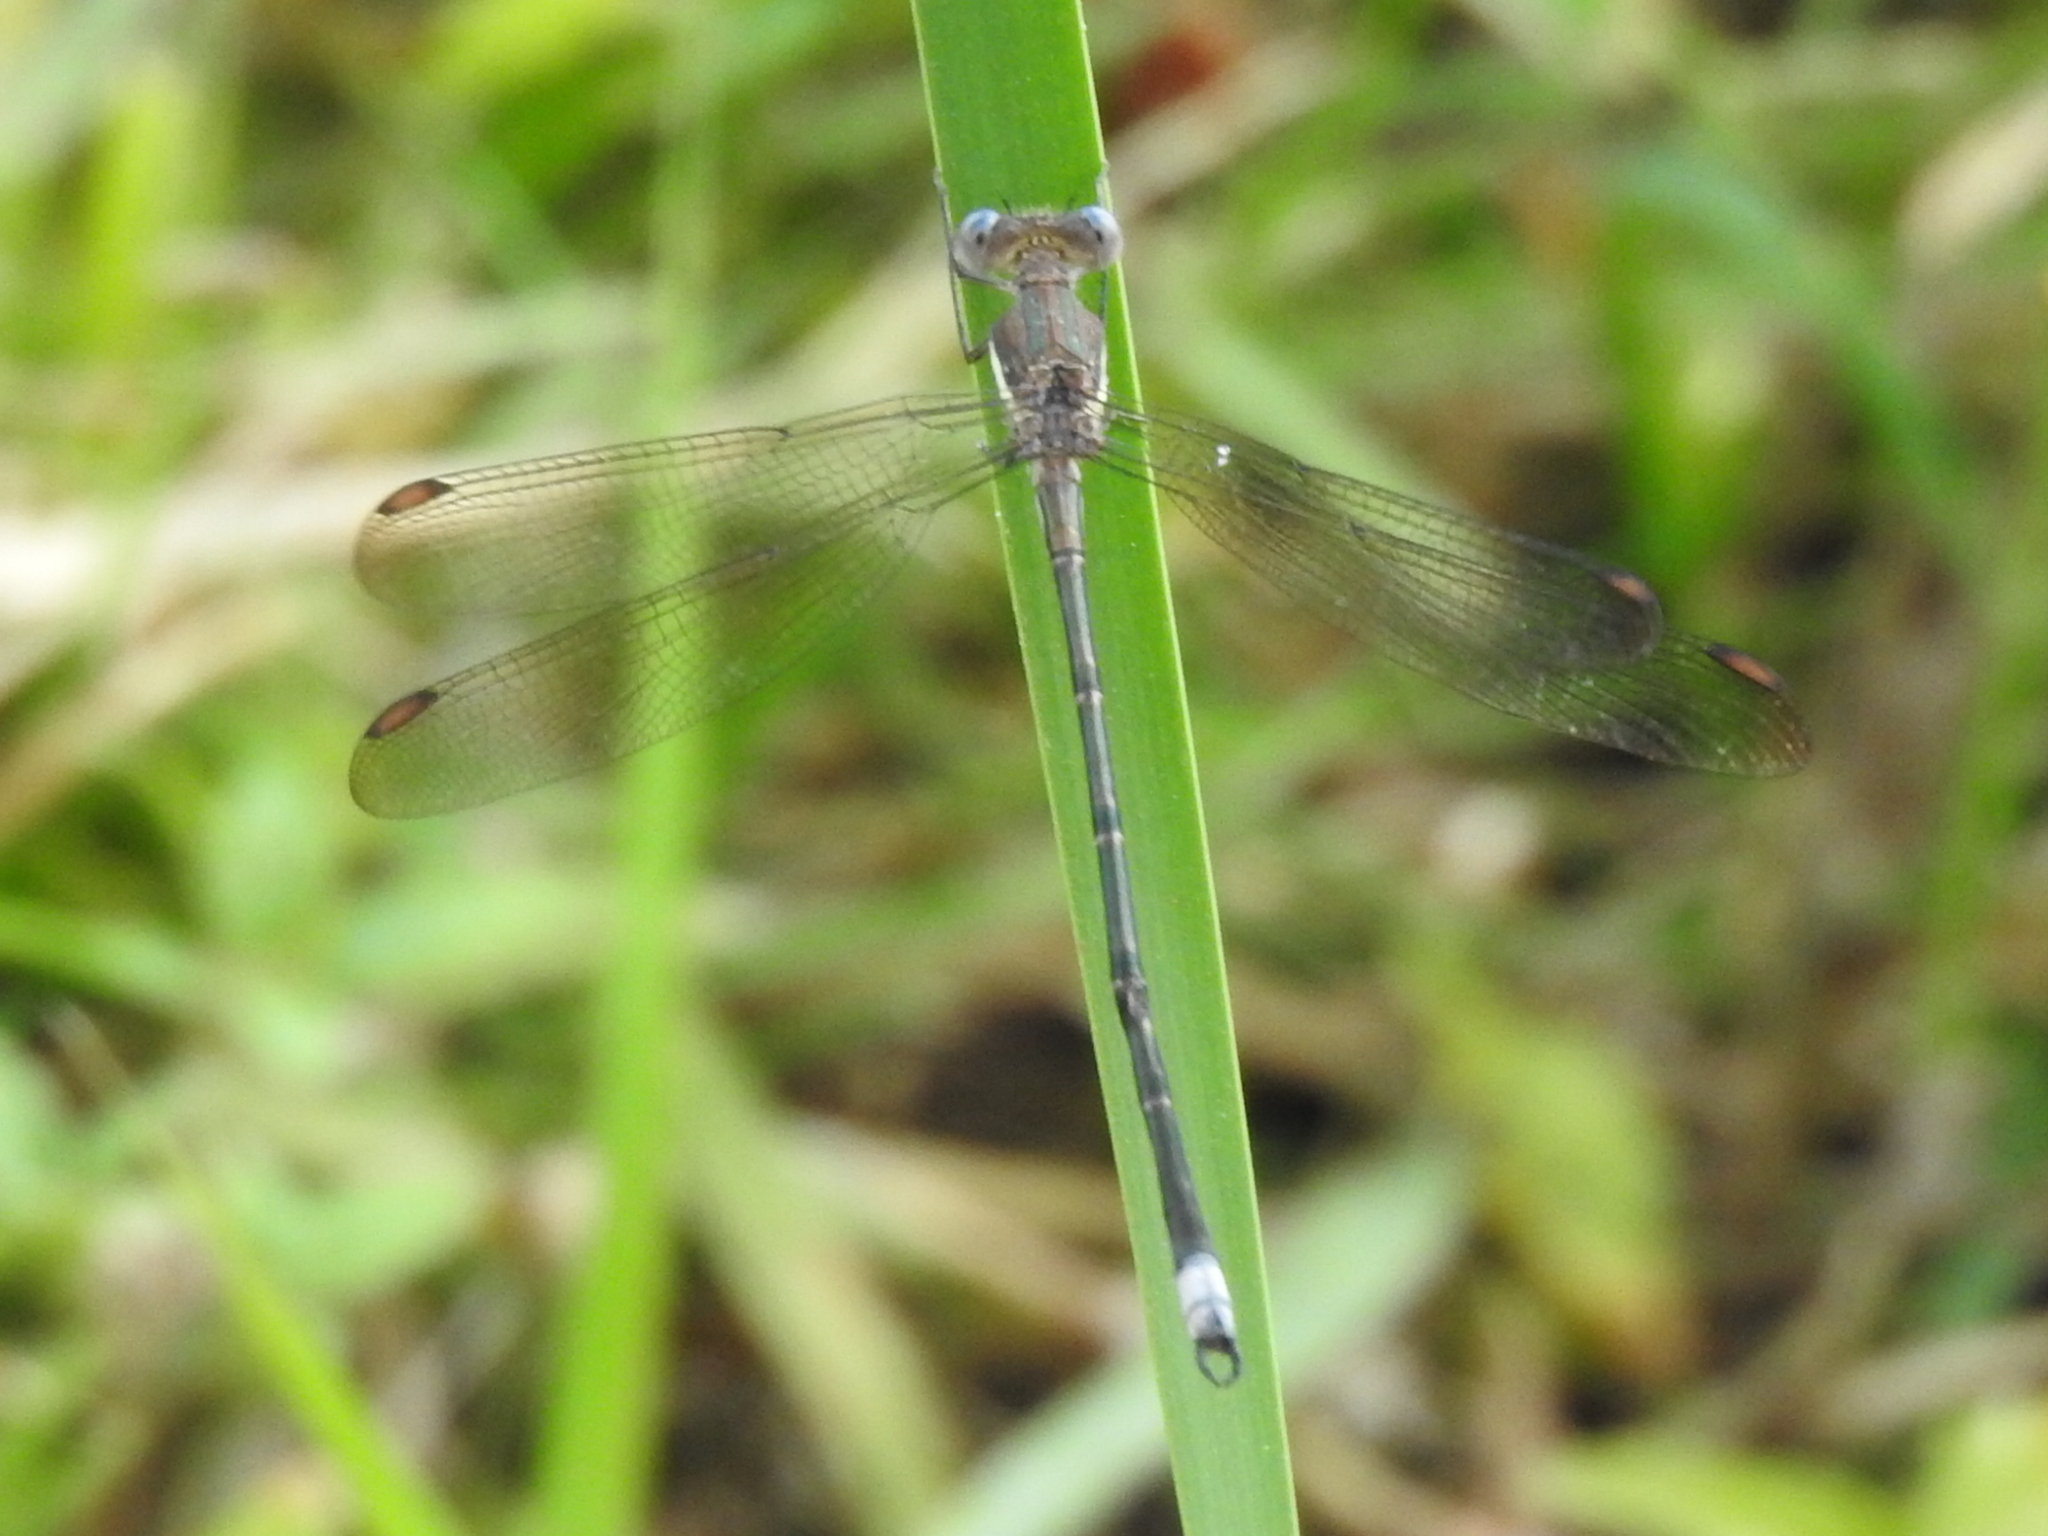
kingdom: Animalia
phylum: Arthropoda
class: Insecta
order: Odonata
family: Lestidae
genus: Archilestes
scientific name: Archilestes grandis
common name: Great spreadwing
